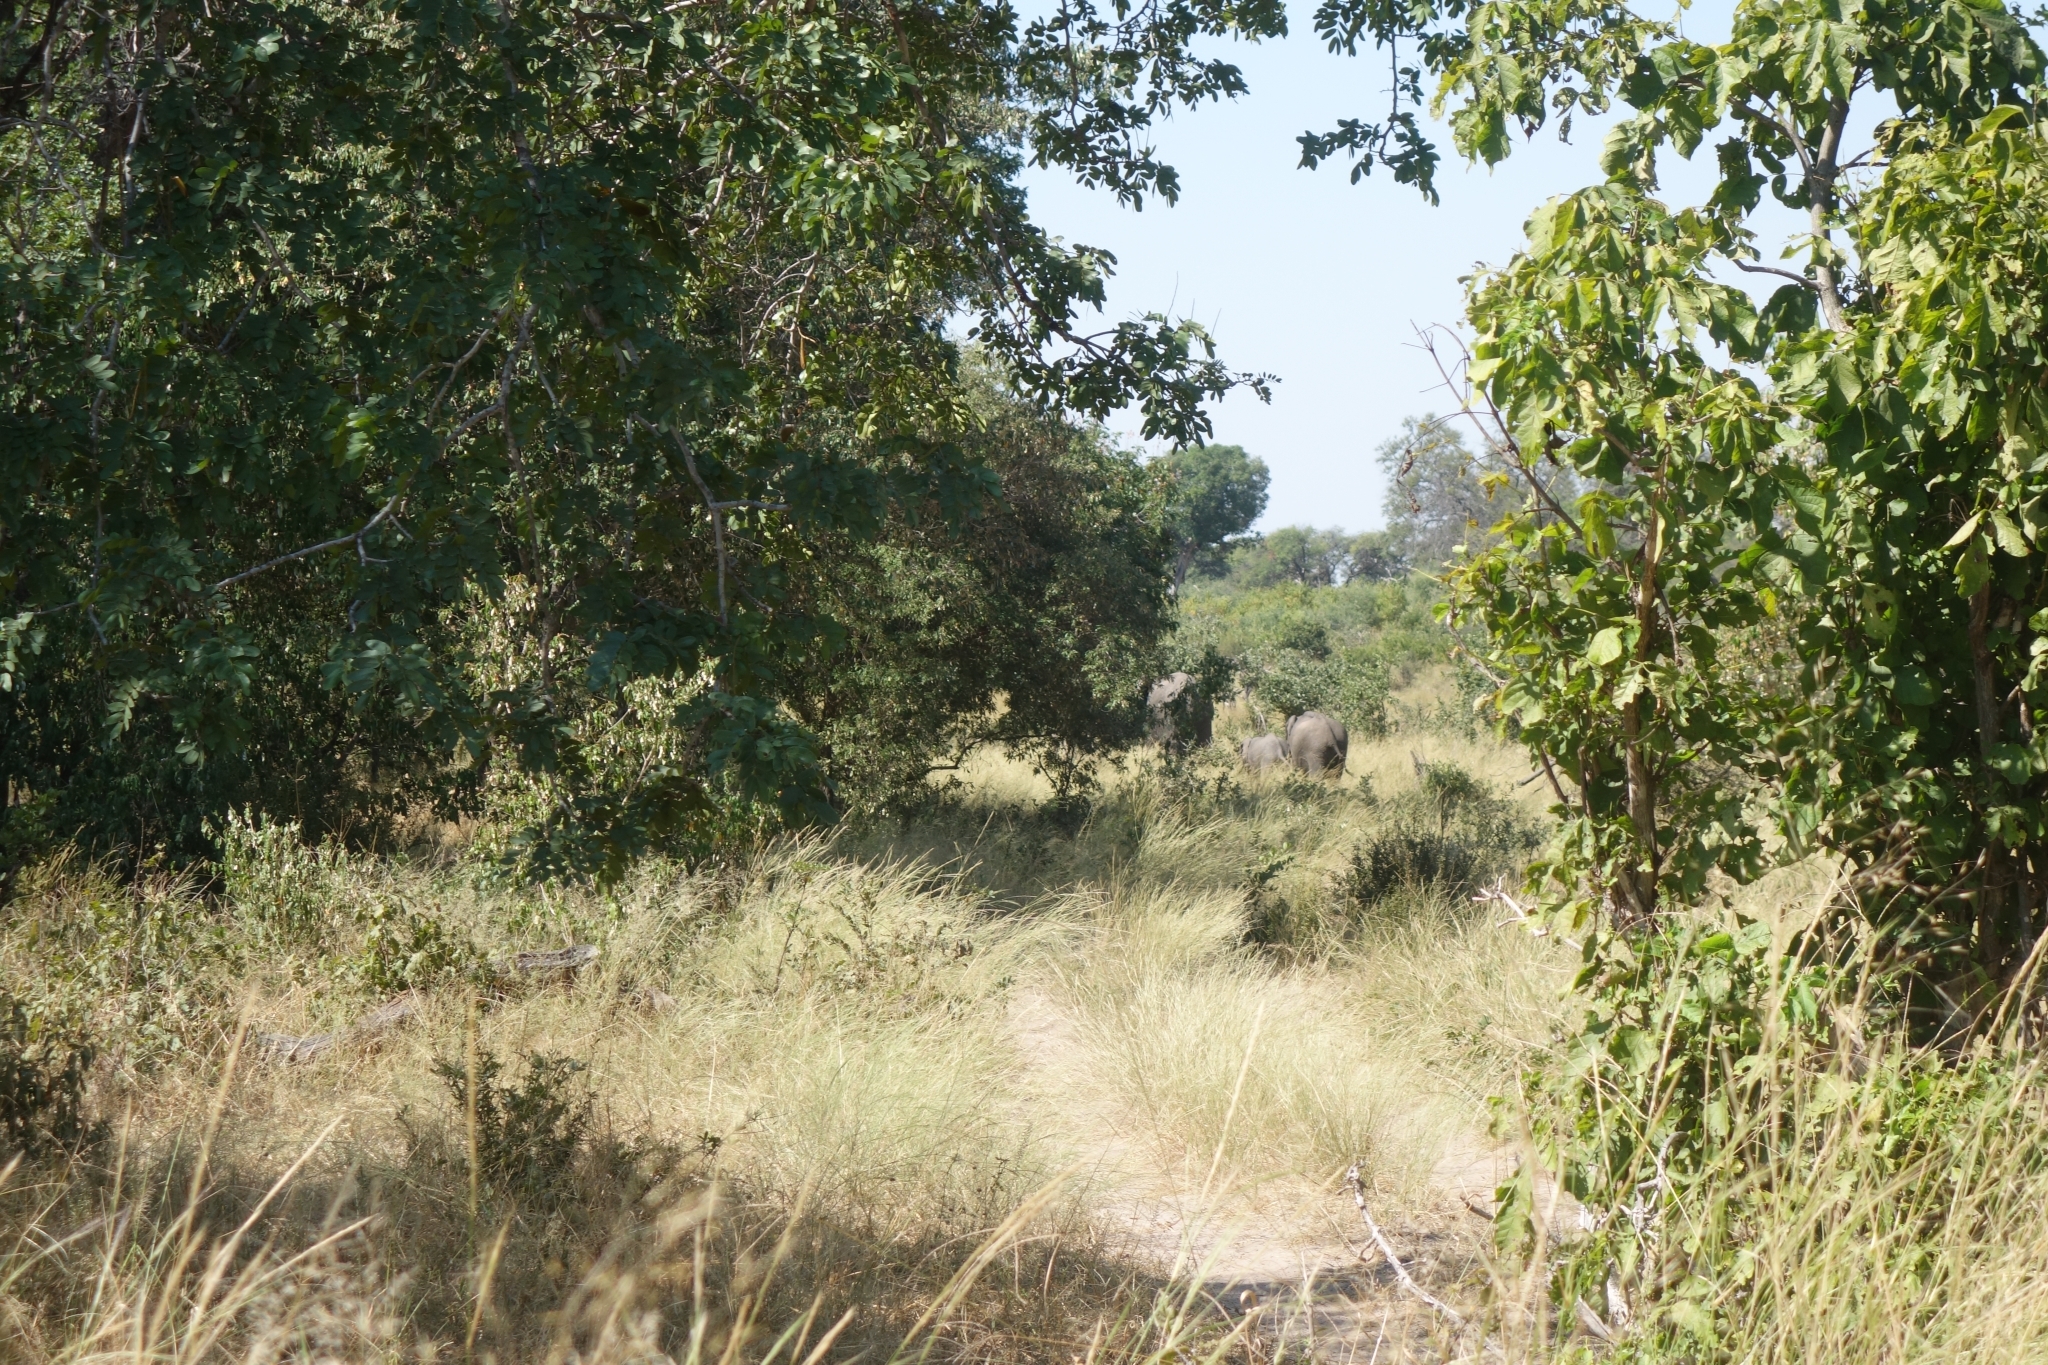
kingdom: Animalia
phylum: Chordata
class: Mammalia
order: Proboscidea
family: Elephantidae
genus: Loxodonta
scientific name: Loxodonta africana
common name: African elephant
